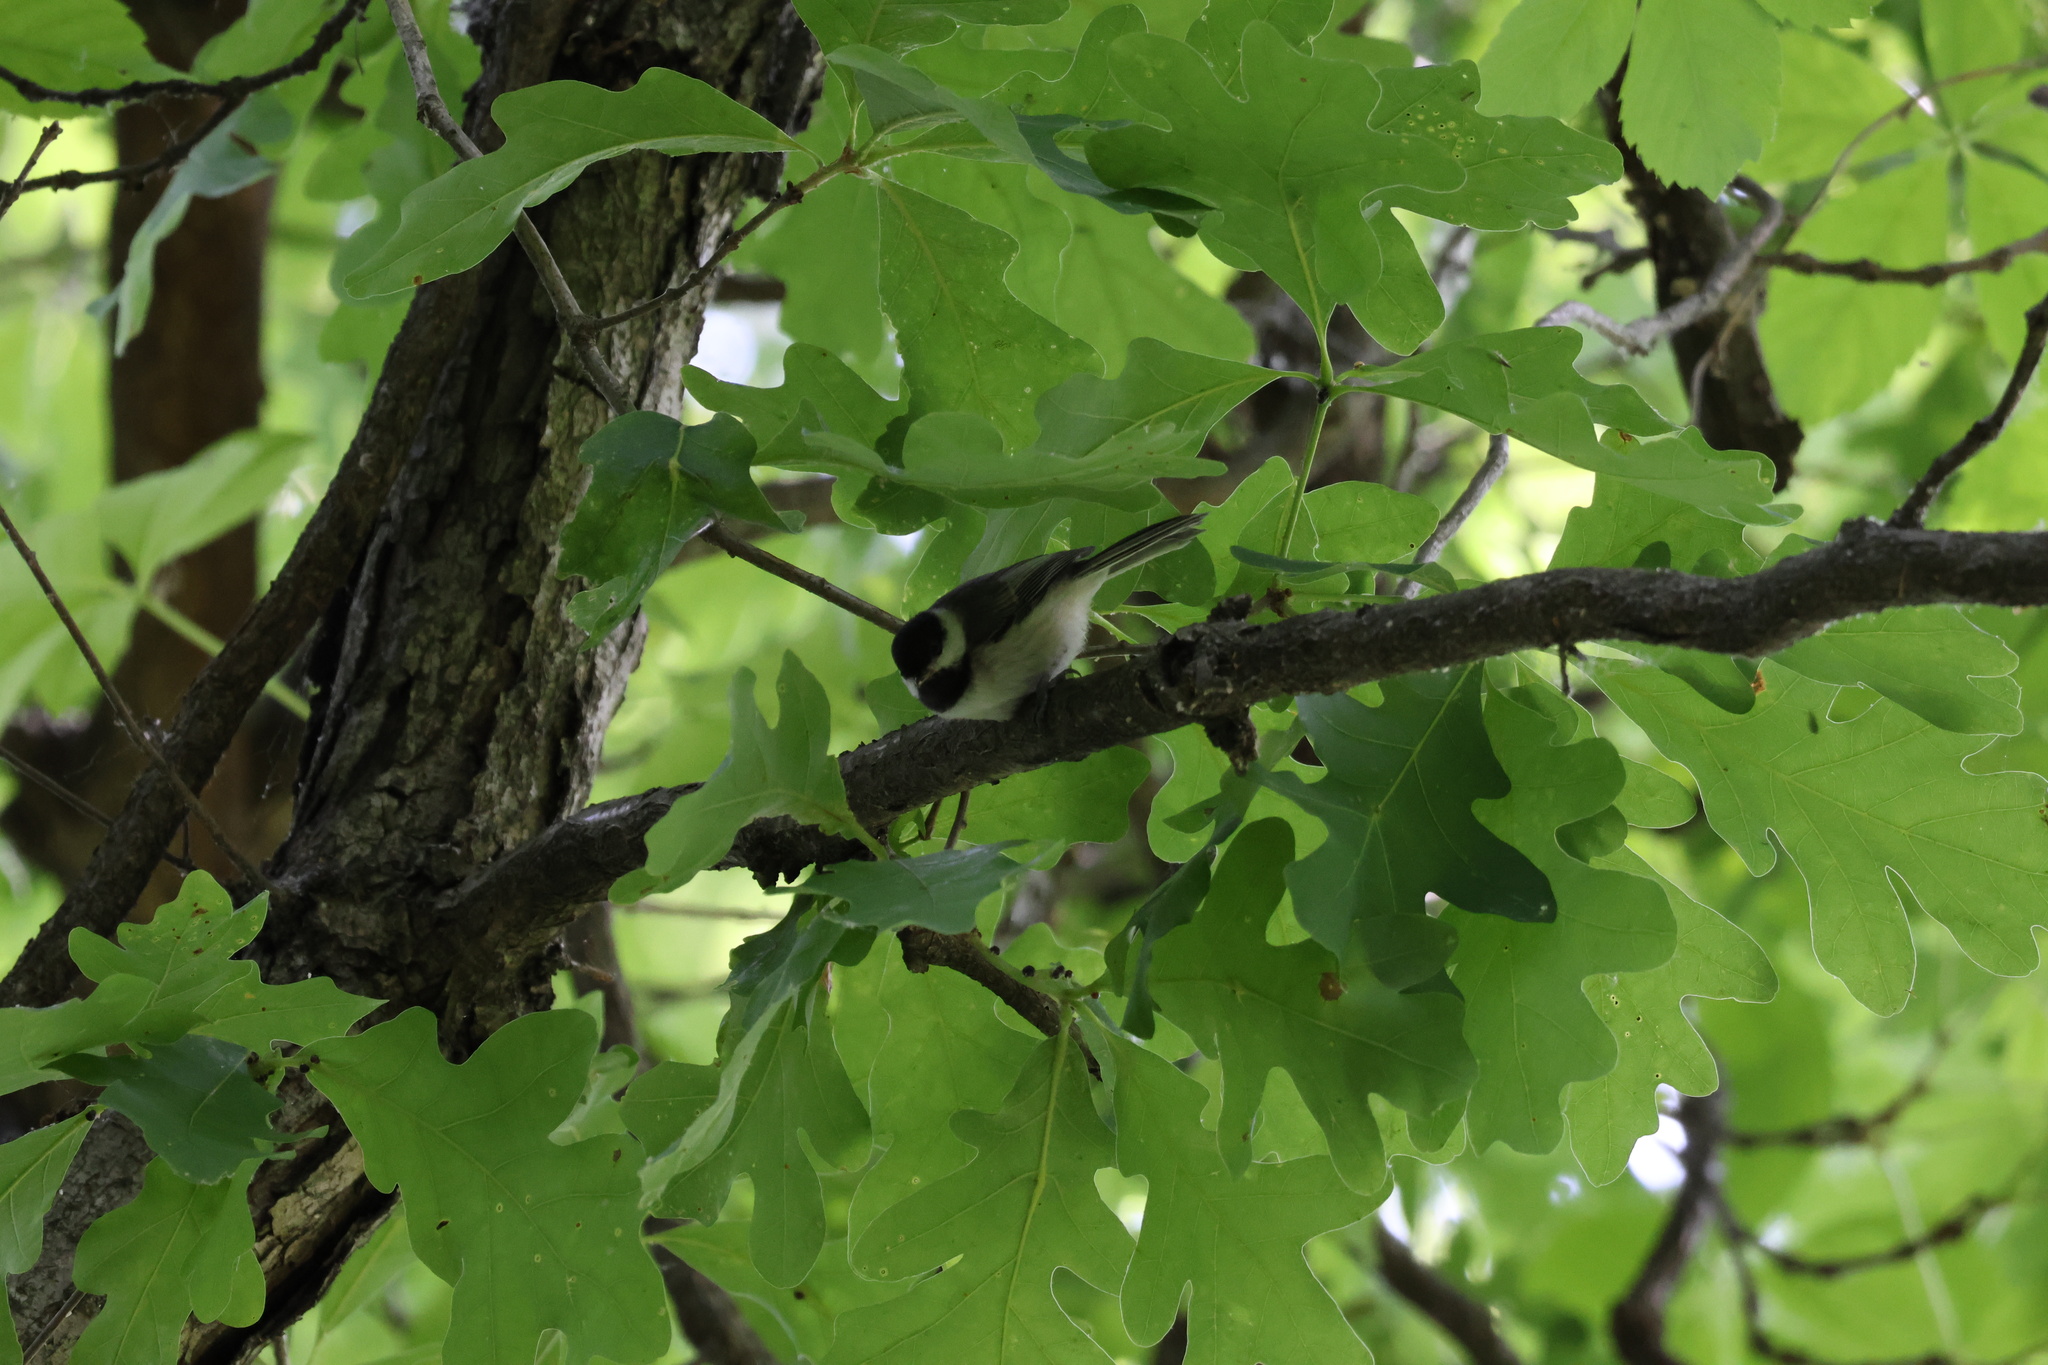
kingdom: Animalia
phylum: Chordata
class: Aves
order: Passeriformes
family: Paridae
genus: Poecile
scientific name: Poecile carolinensis
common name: Carolina chickadee
